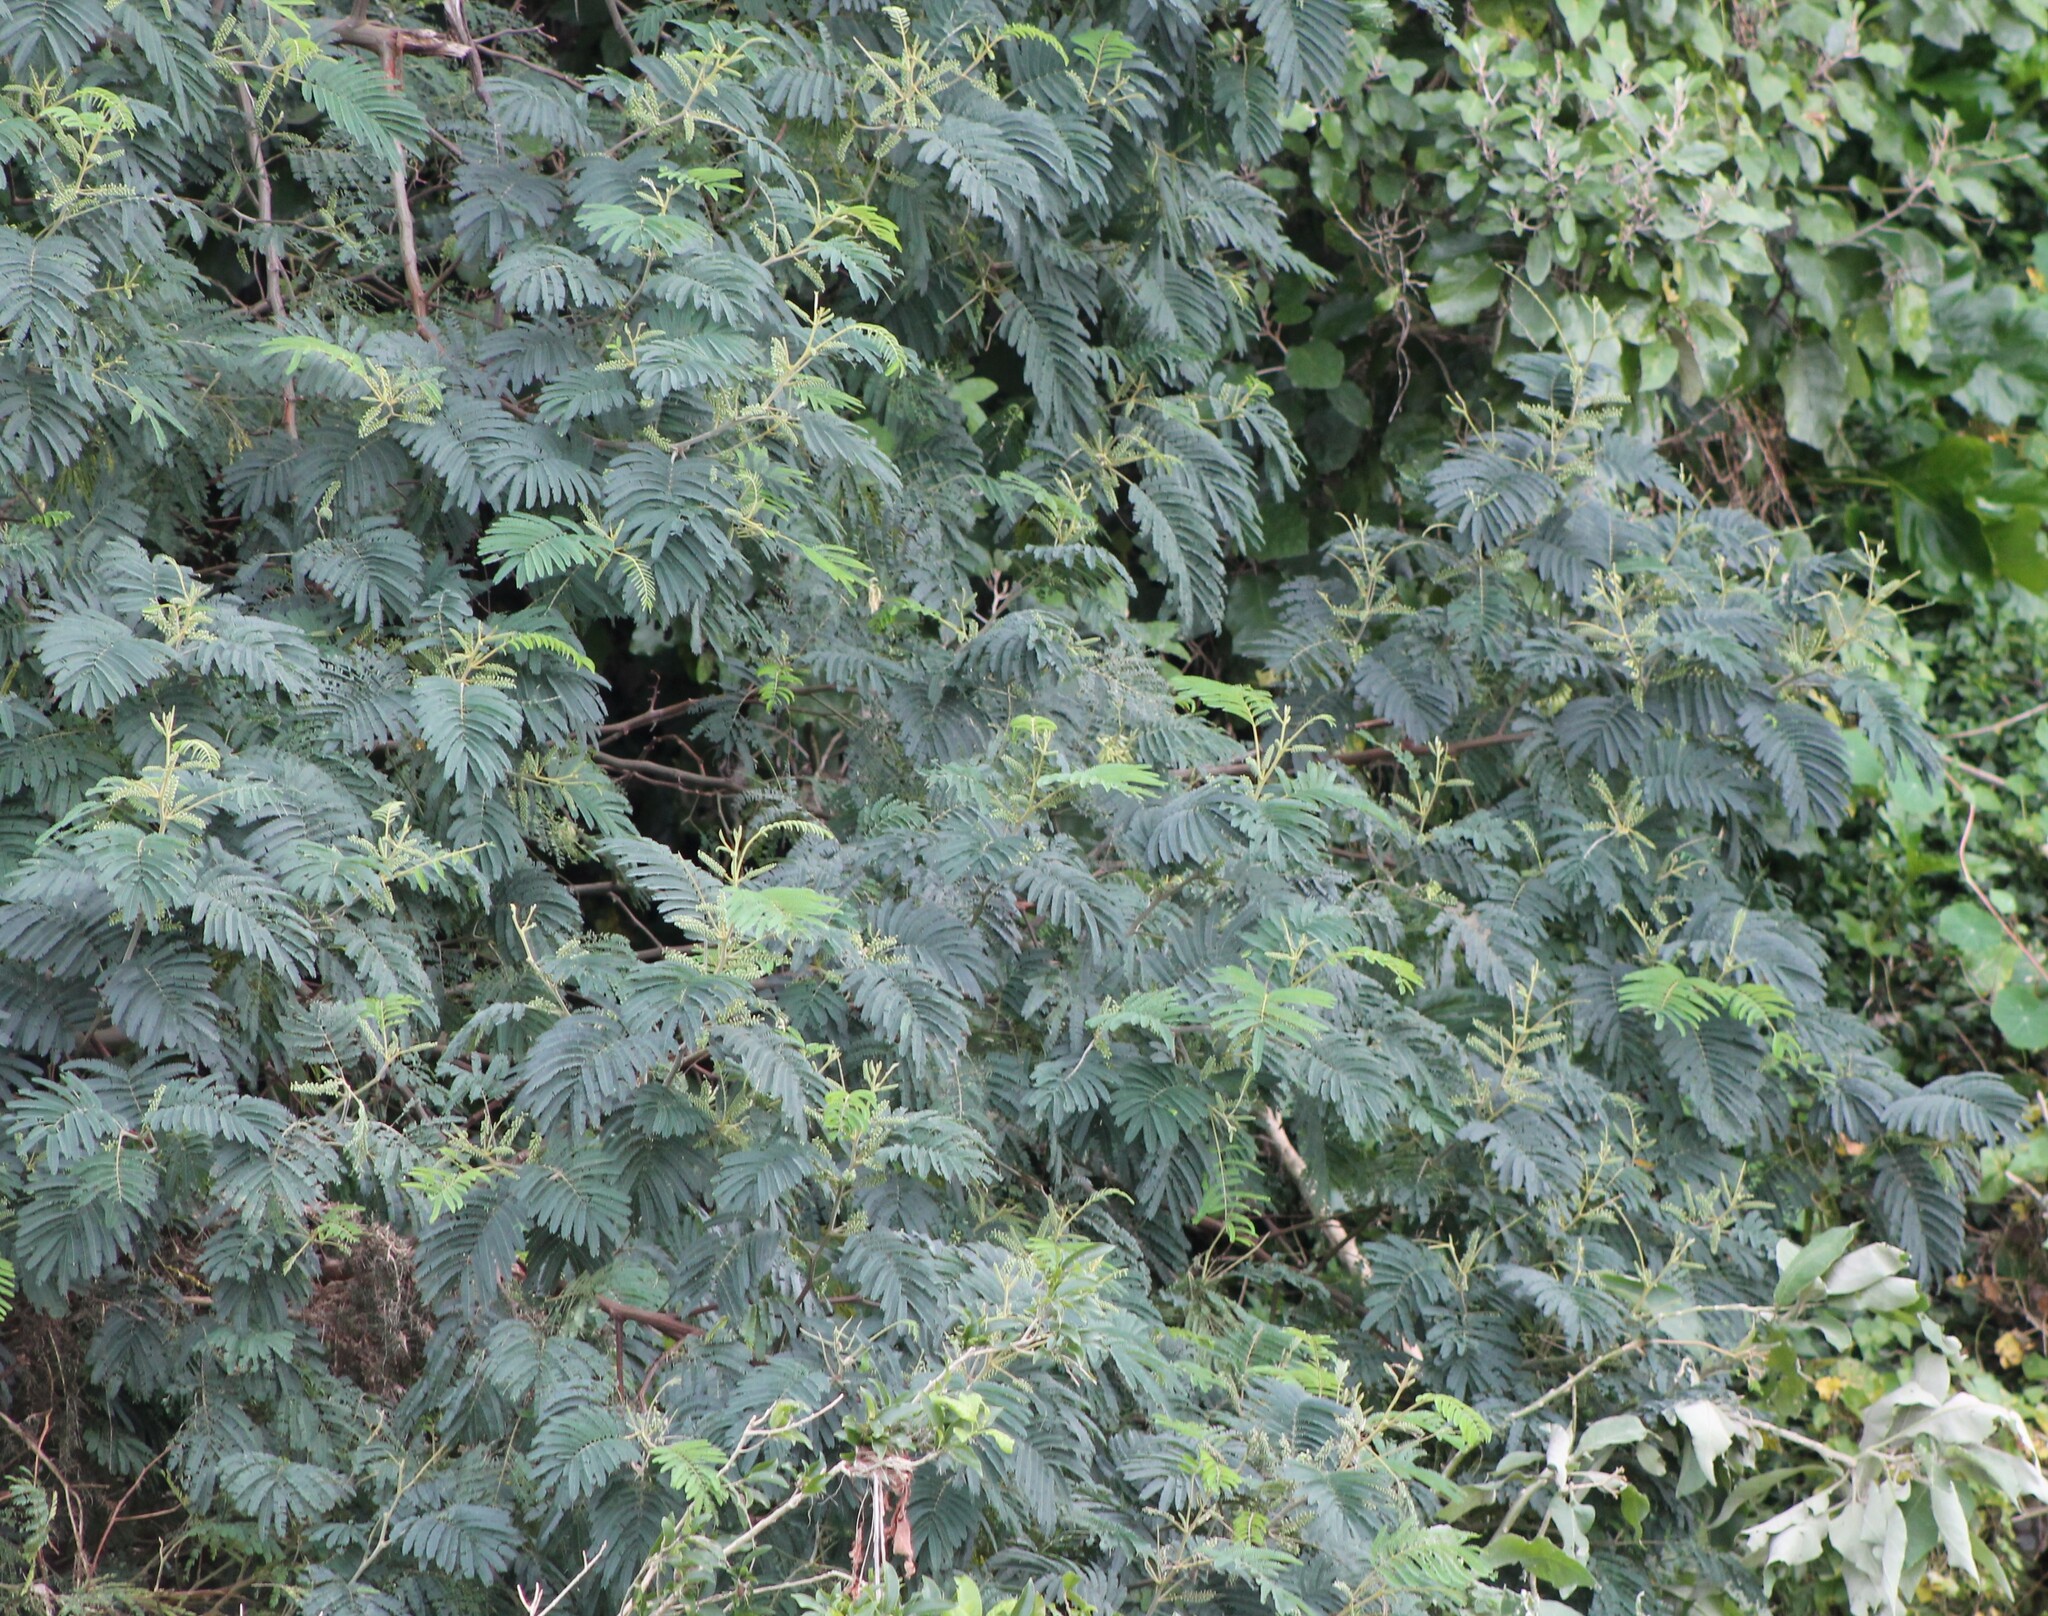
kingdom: Plantae
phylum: Tracheophyta
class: Magnoliopsida
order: Fabales
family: Fabaceae
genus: Paraserianthes
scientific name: Paraserianthes lophantha
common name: Plume albizia
